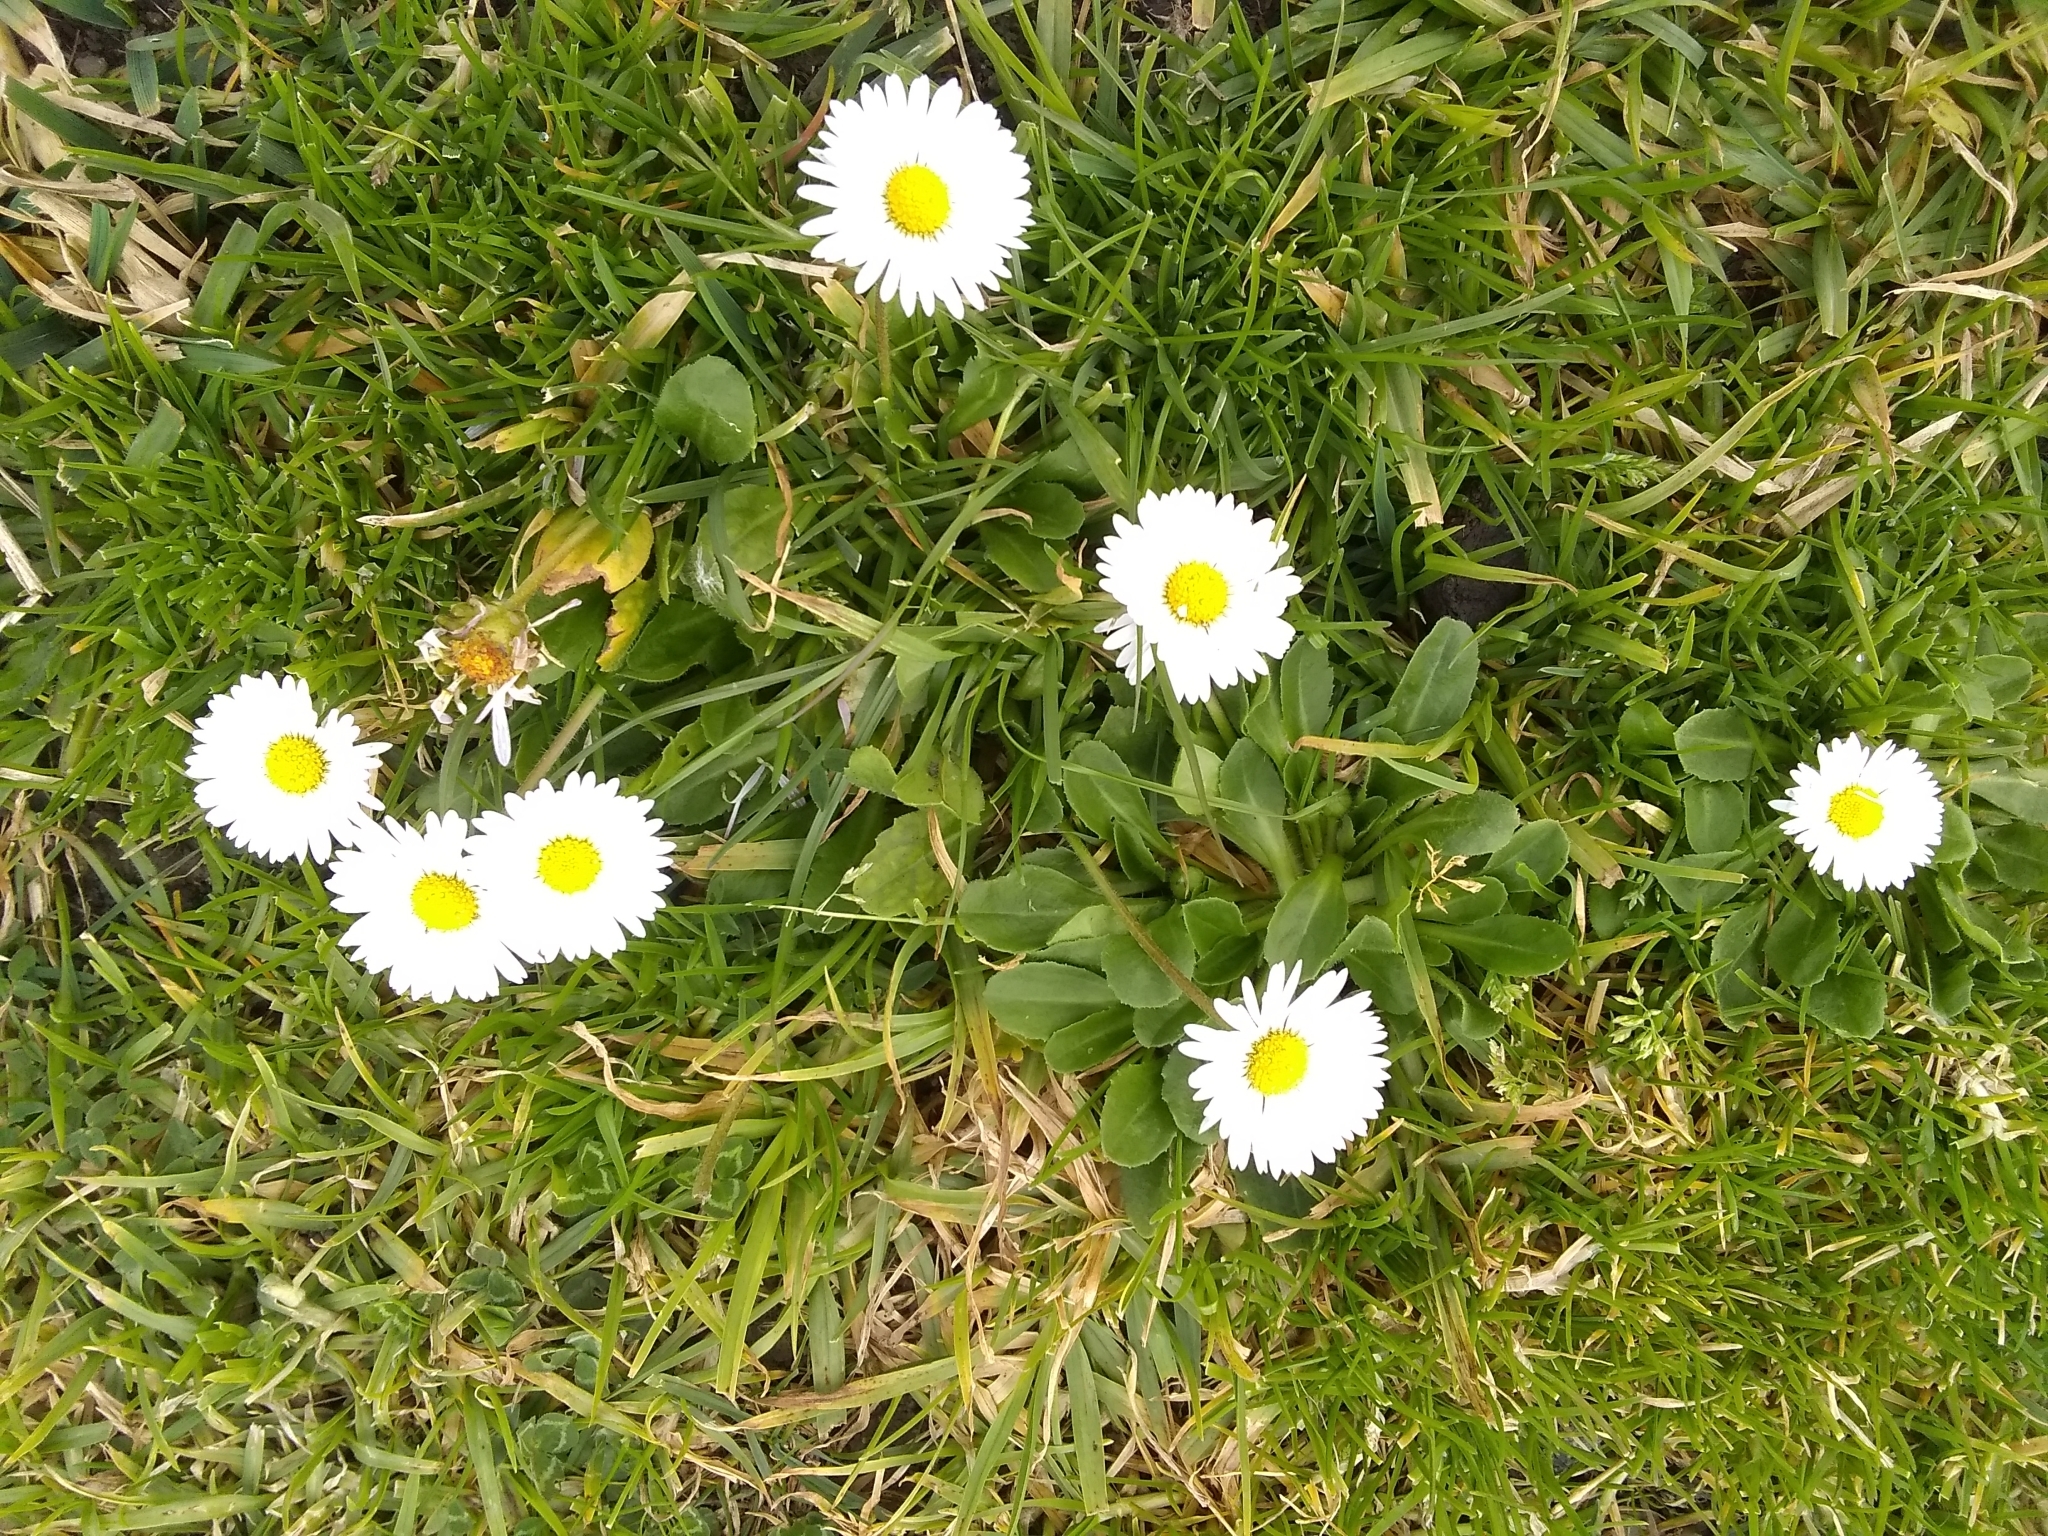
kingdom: Plantae
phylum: Tracheophyta
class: Magnoliopsida
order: Asterales
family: Asteraceae
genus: Bellis
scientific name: Bellis perennis
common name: Lawndaisy
